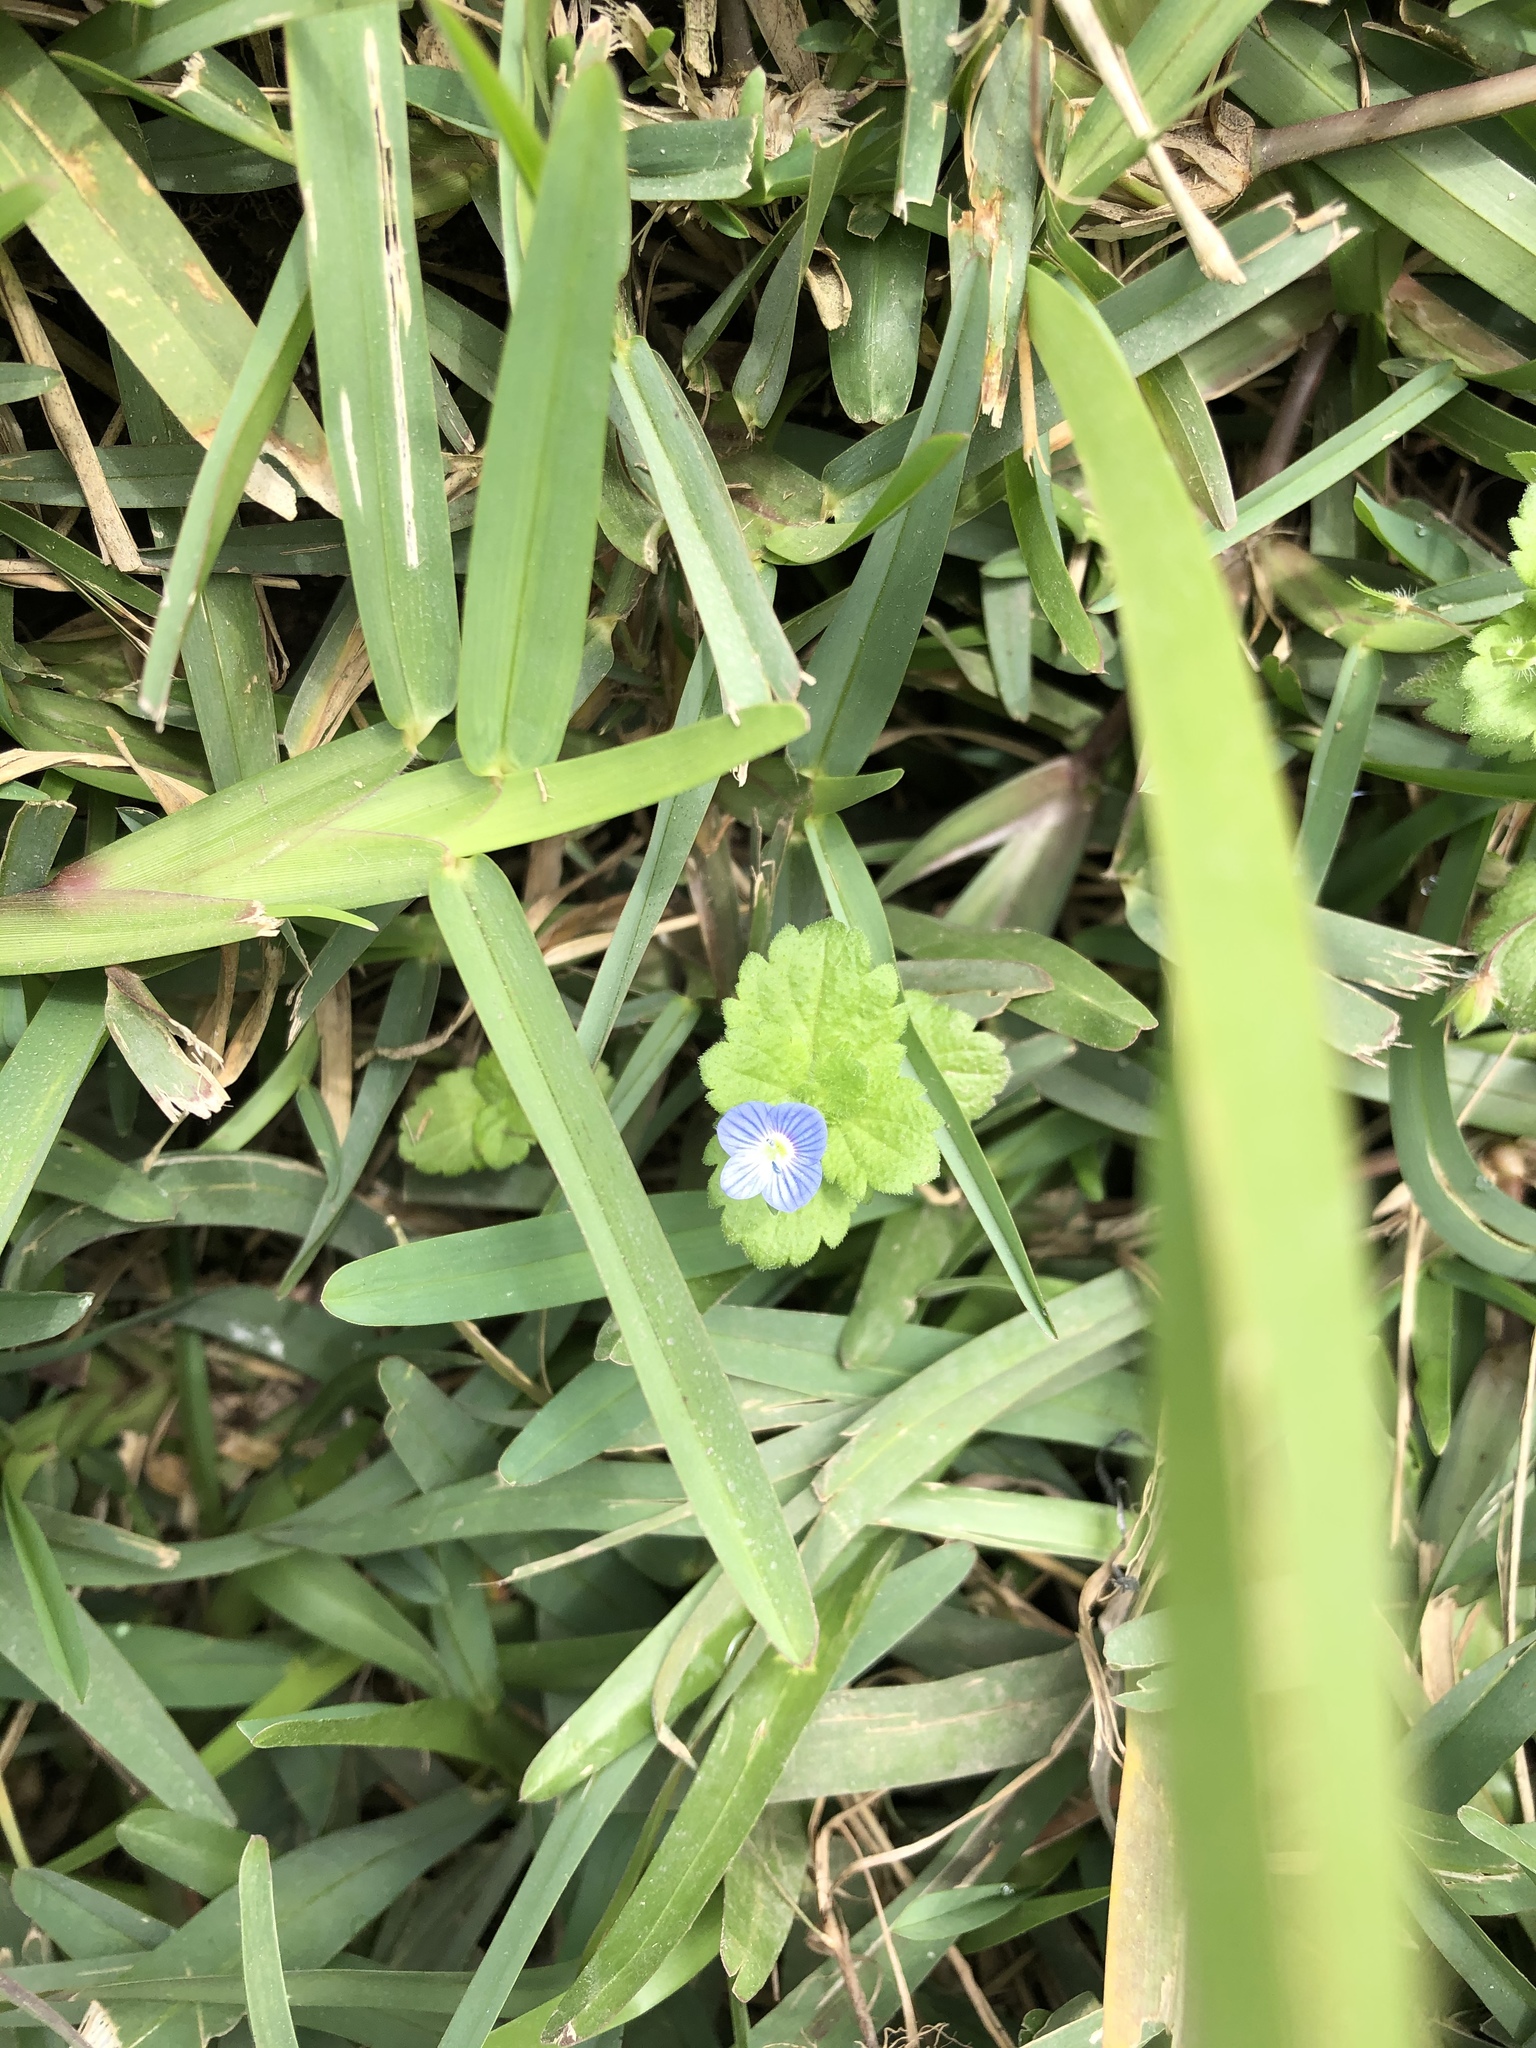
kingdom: Plantae
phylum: Tracheophyta
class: Magnoliopsida
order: Lamiales
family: Plantaginaceae
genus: Veronica
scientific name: Veronica persica
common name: Common field-speedwell
